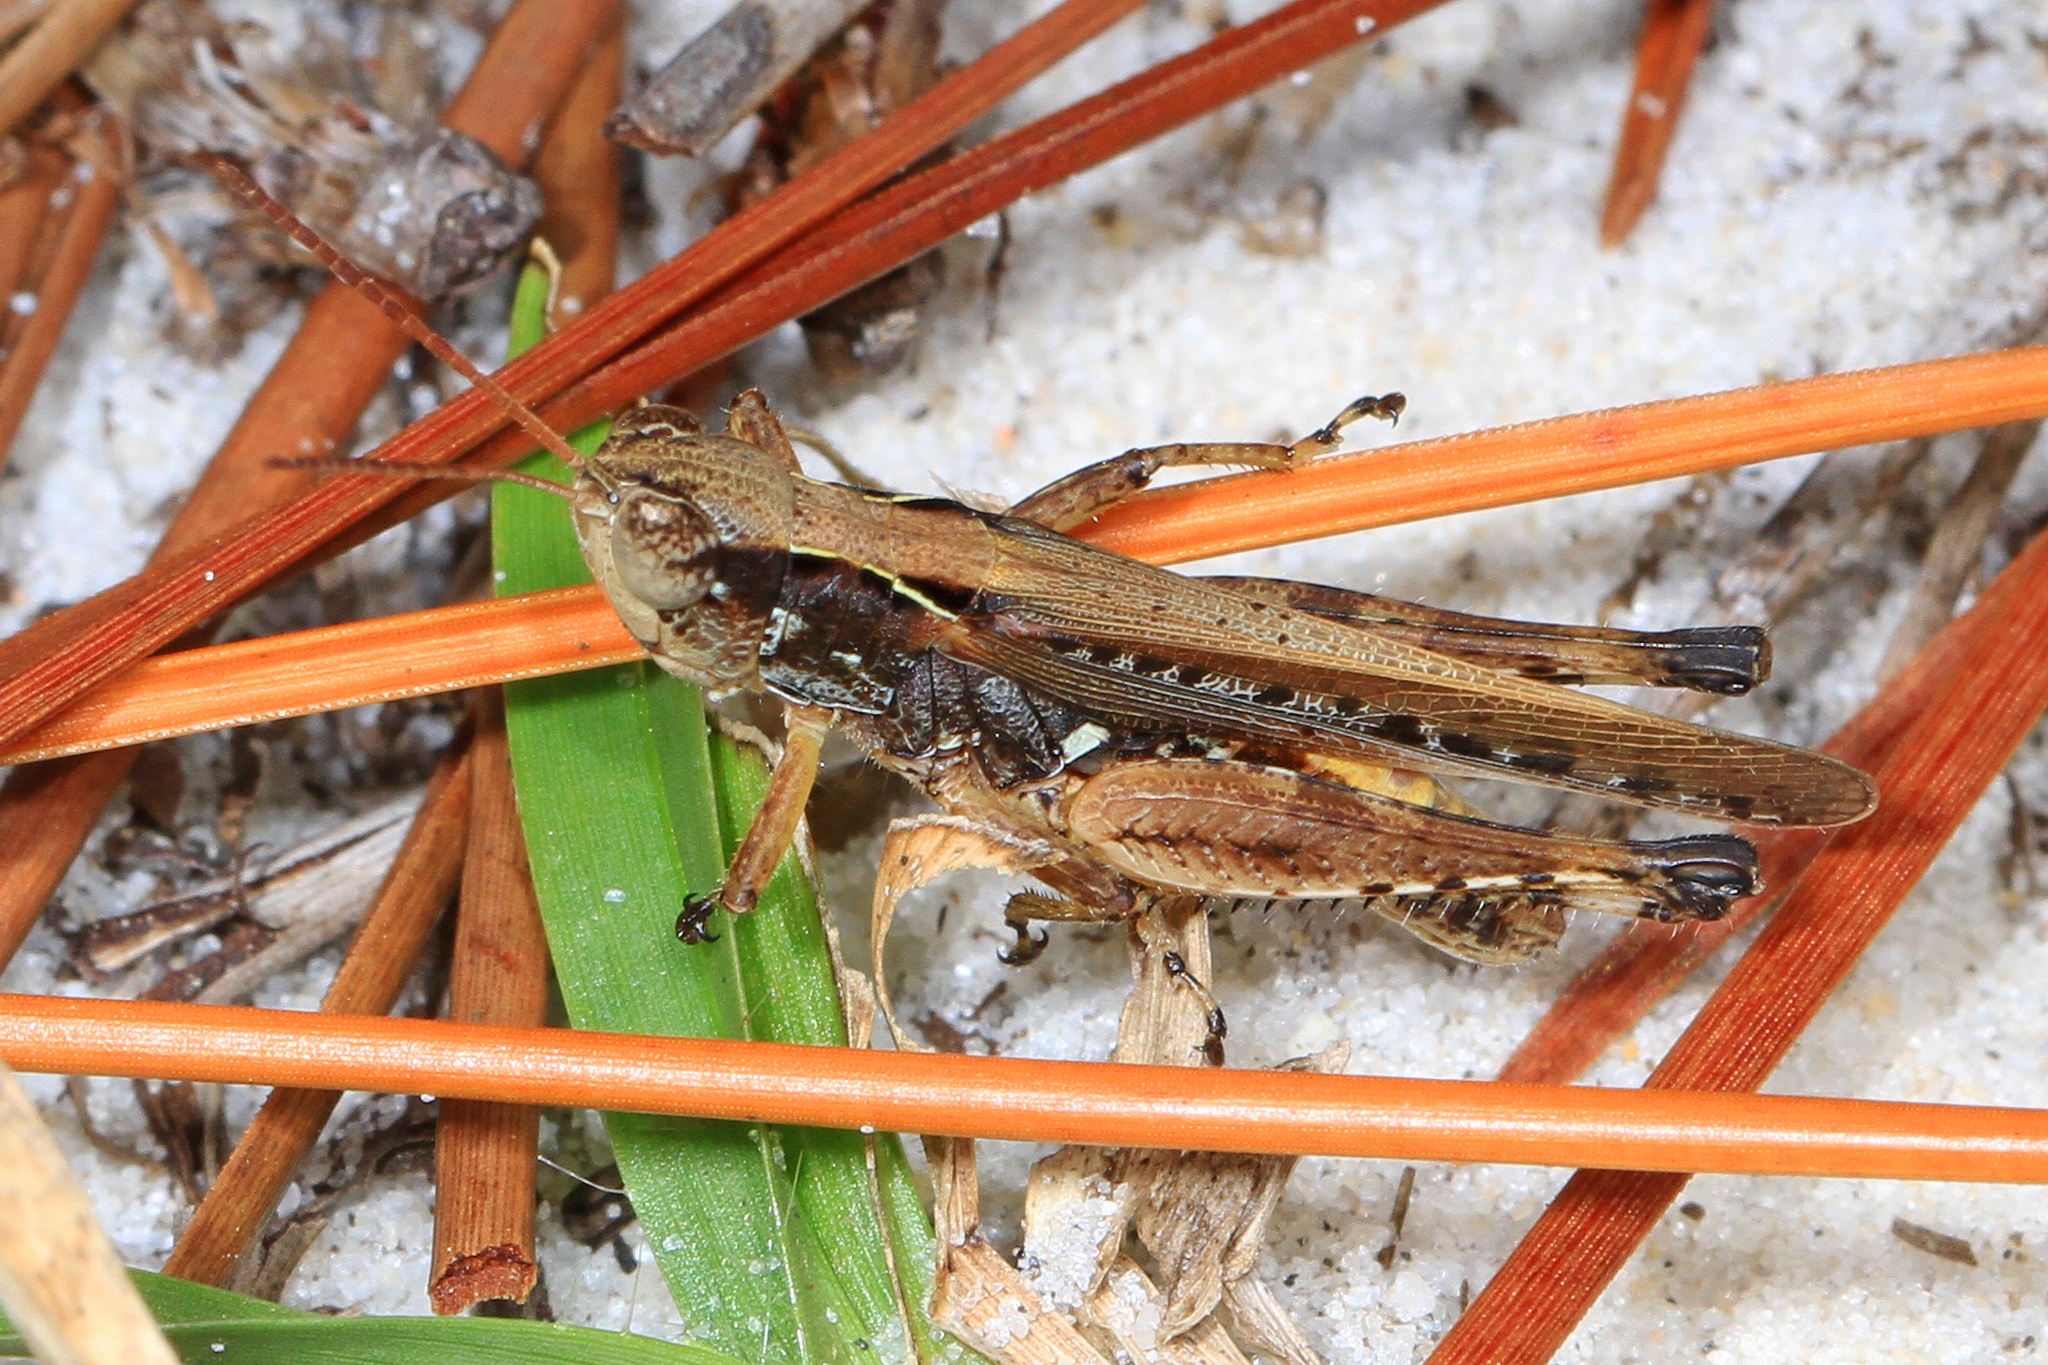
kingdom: Animalia
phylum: Arthropoda
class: Insecta
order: Orthoptera
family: Acrididae
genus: Orphulella
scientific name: Orphulella pelidna
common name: Spotted-wing grasshopper
